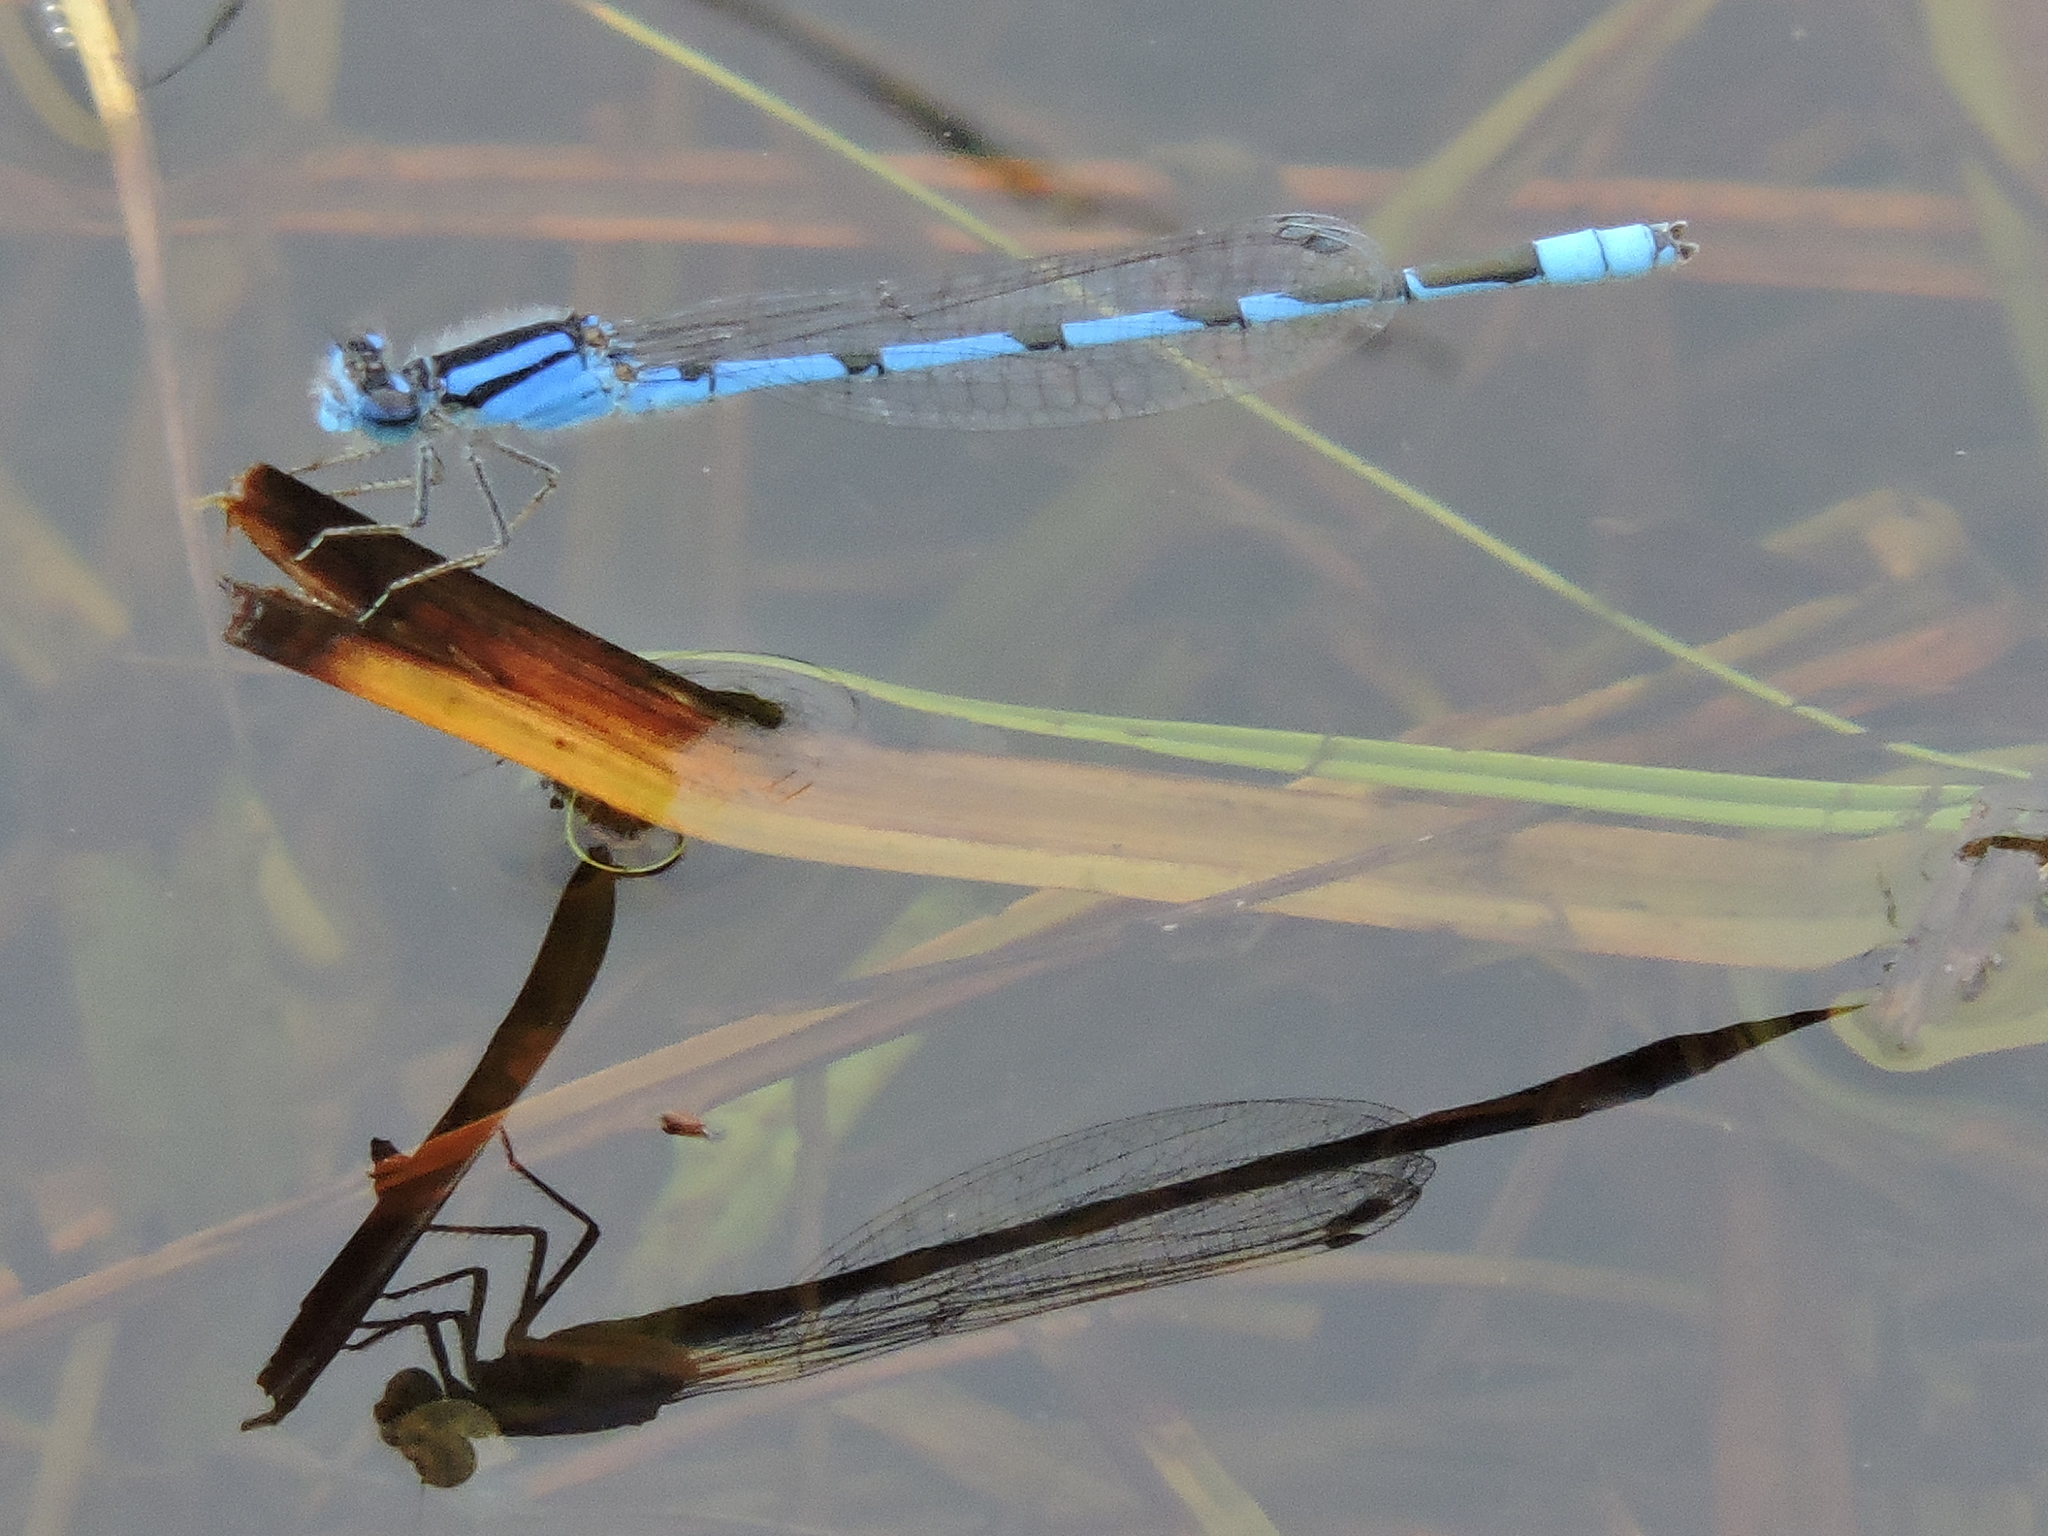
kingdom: Animalia
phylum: Arthropoda
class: Insecta
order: Odonata
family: Coenagrionidae
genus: Enallagma
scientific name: Enallagma civile
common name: Damselfly
